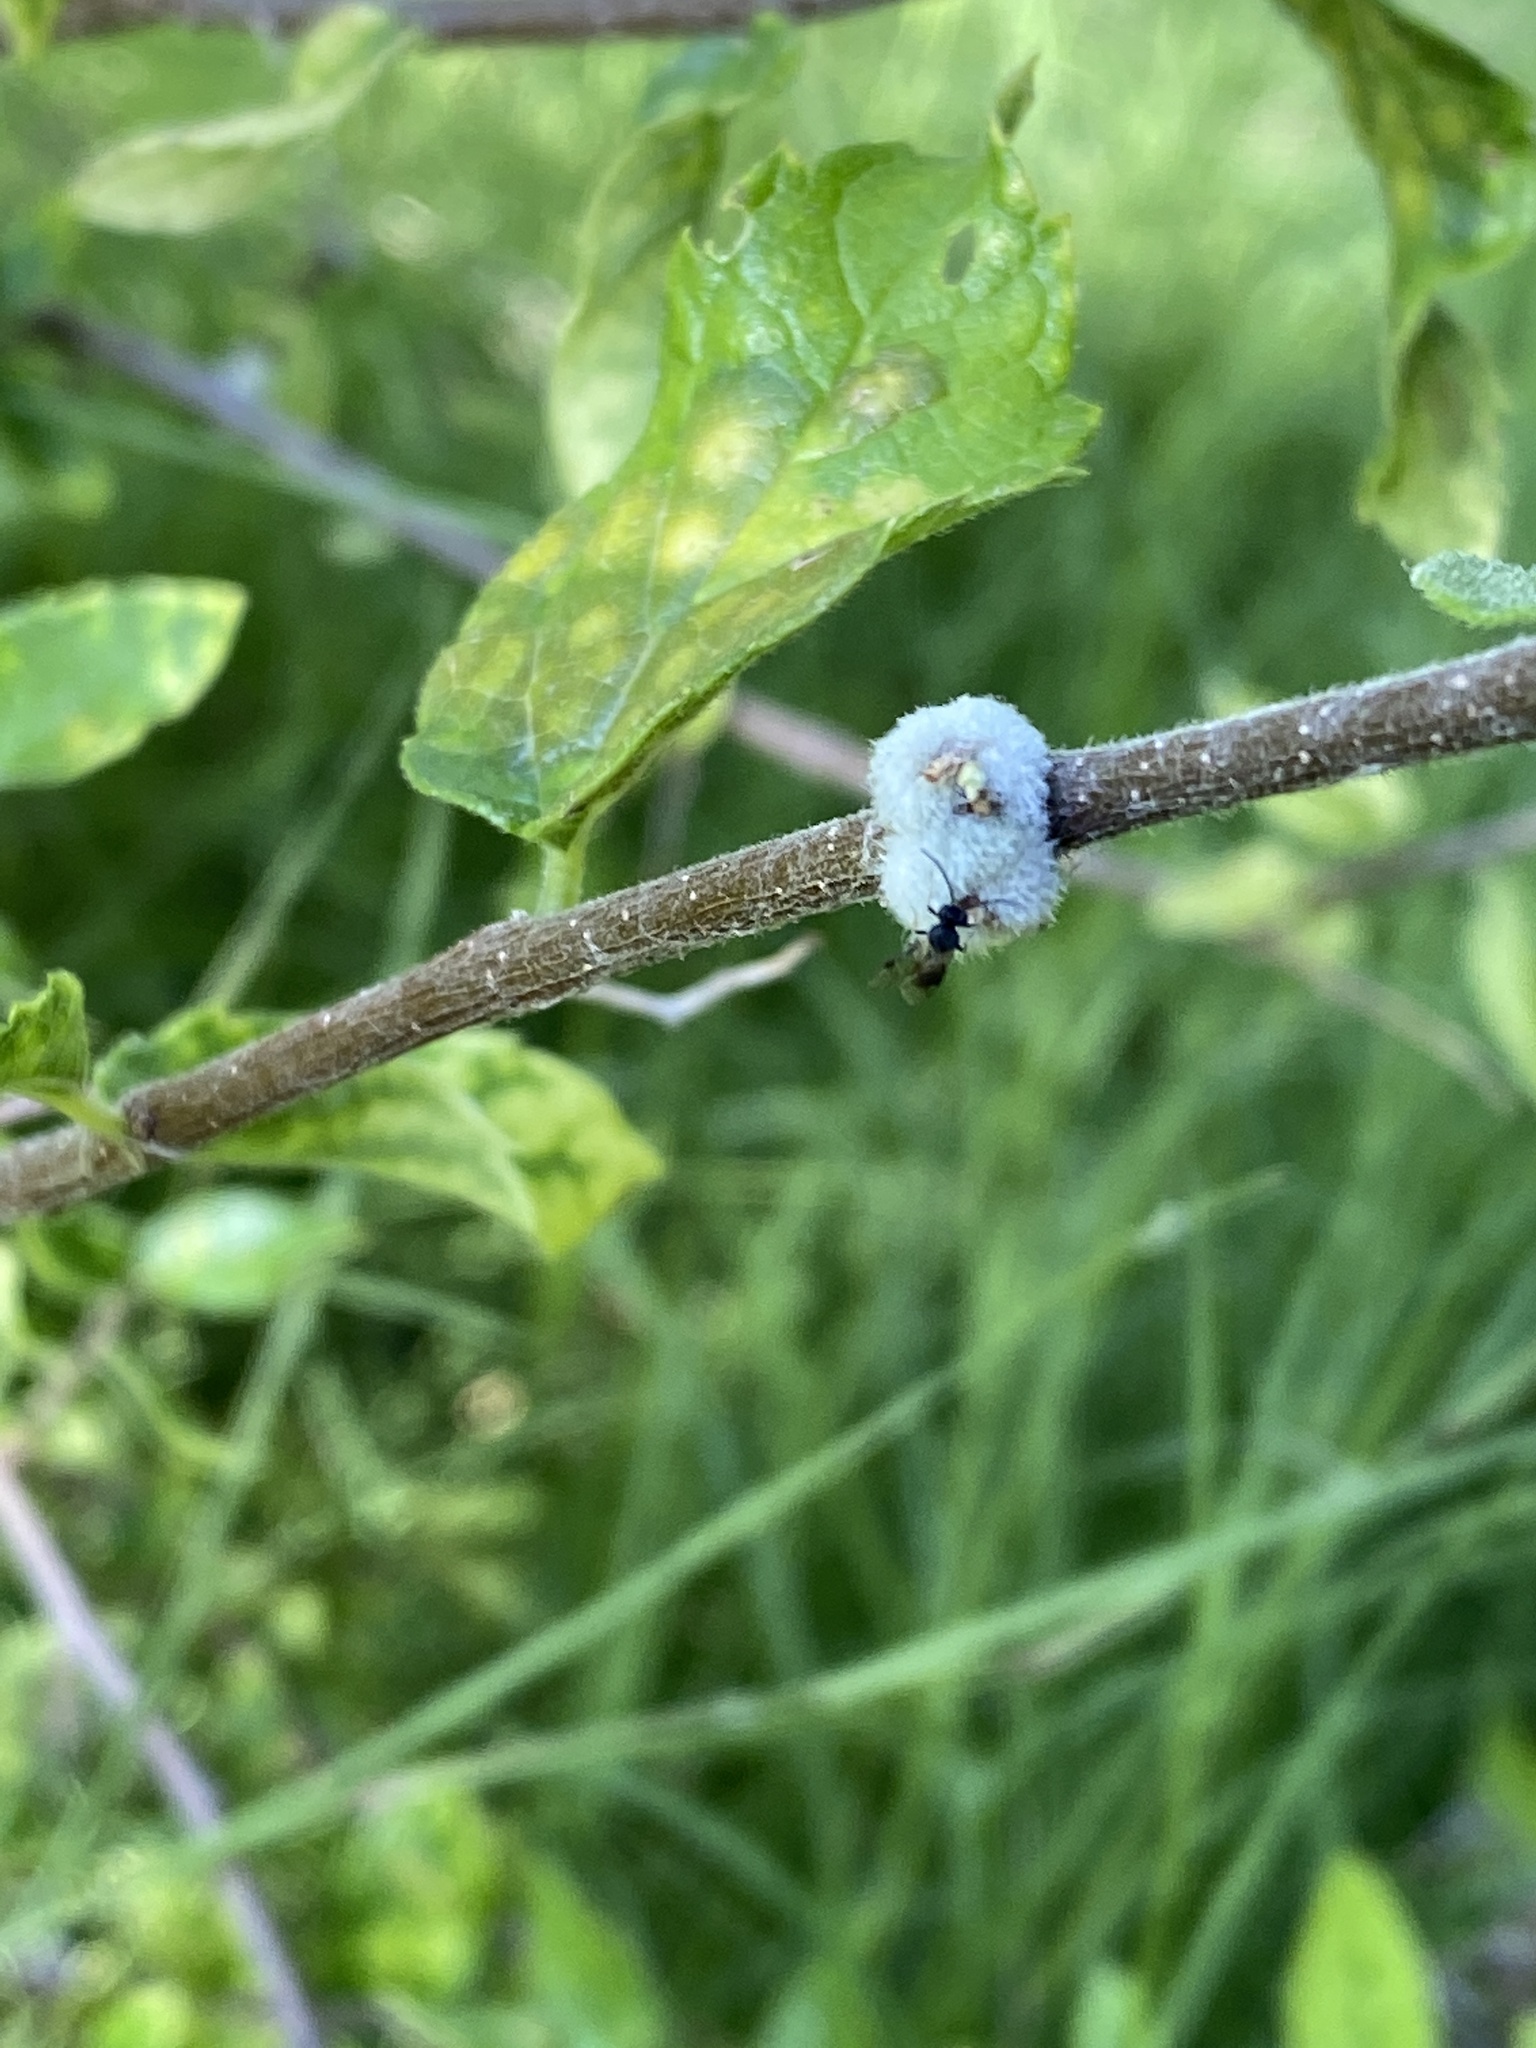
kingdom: Animalia
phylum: Arthropoda
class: Insecta
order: Hemiptera
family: Aphalaridae
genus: Pachypsylla
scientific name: Pachypsylla pallida
